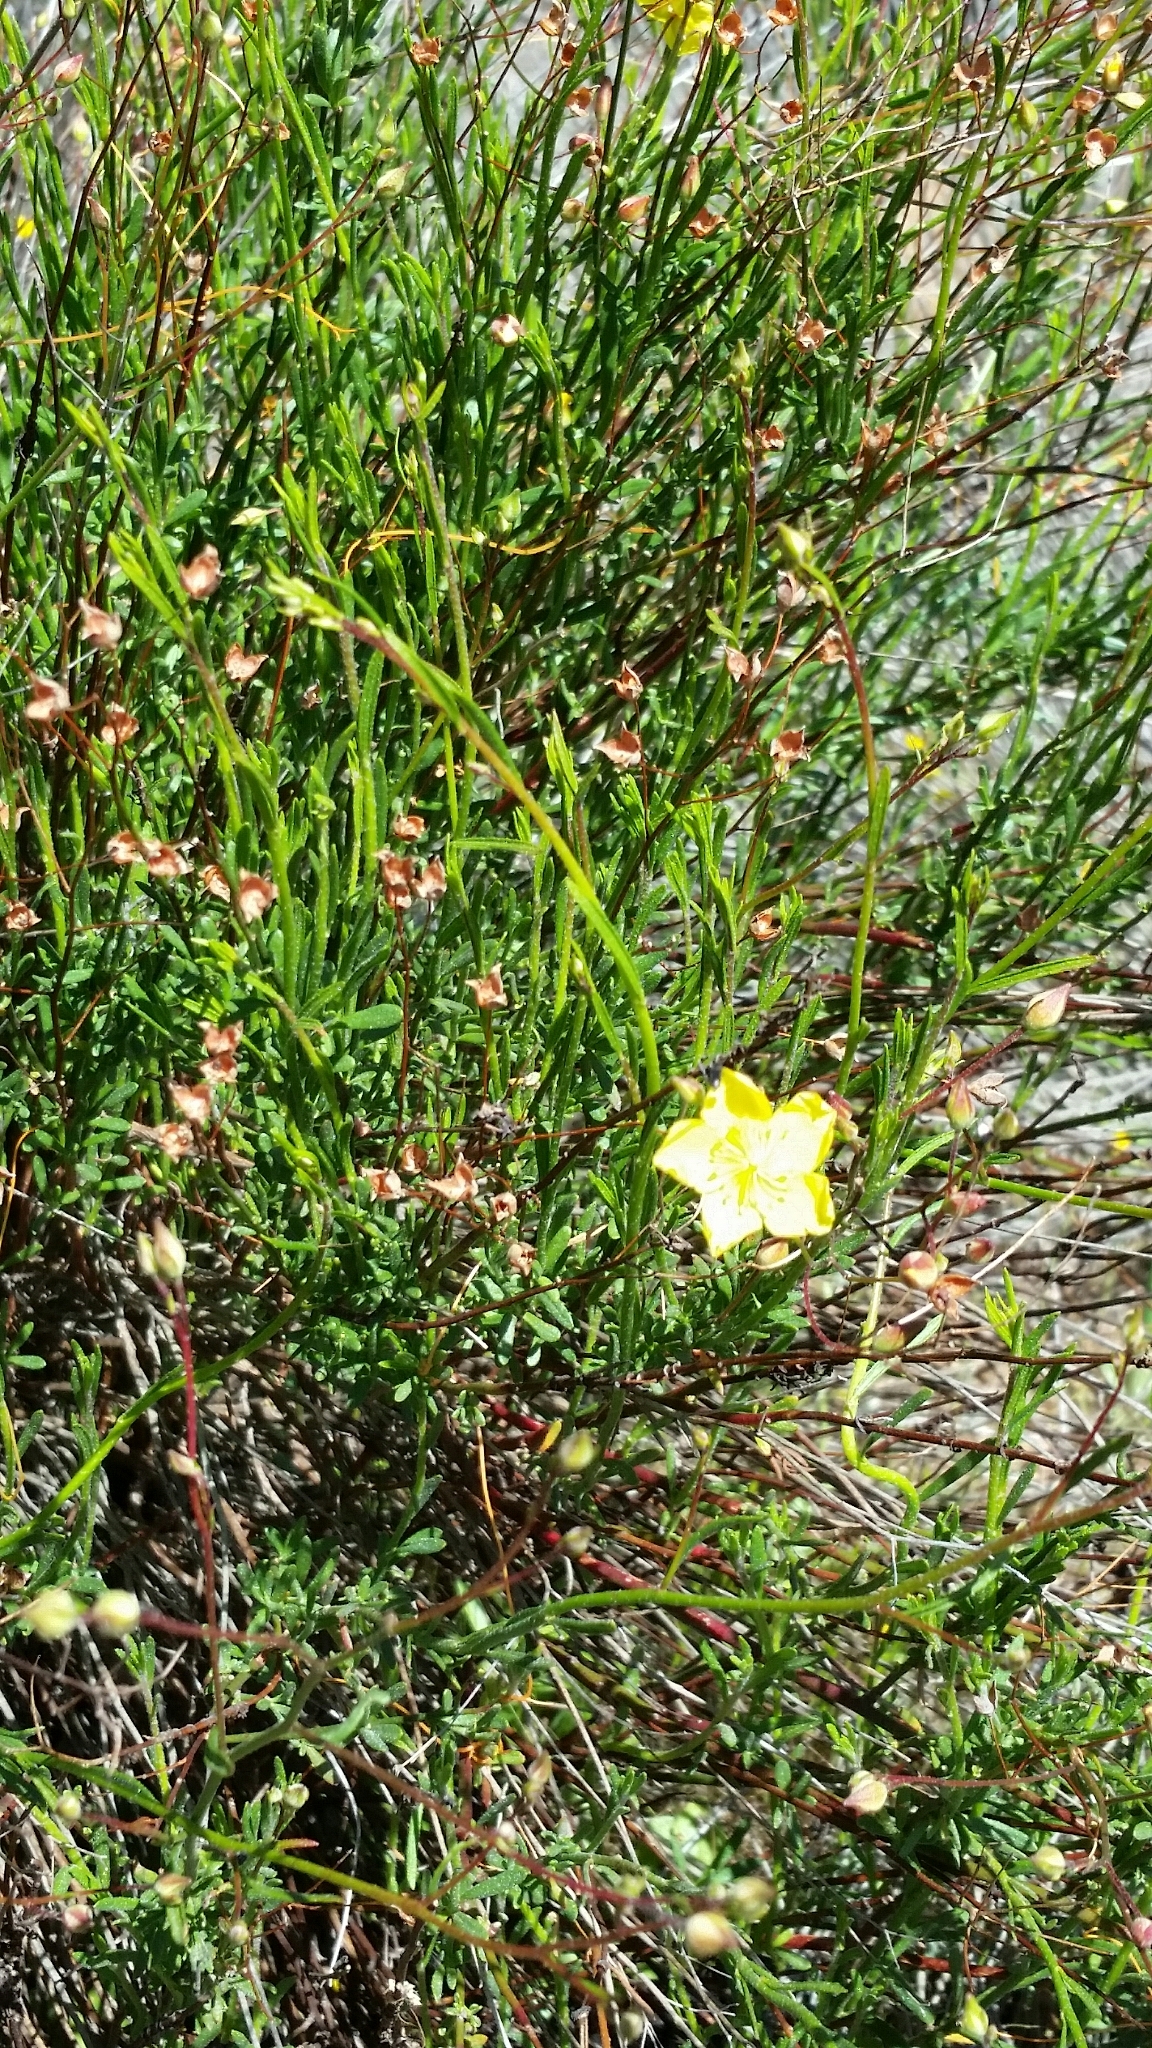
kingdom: Plantae
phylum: Tracheophyta
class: Magnoliopsida
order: Malvales
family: Cistaceae
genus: Crocanthemum
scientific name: Crocanthemum scoparium
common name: Broom-rose
